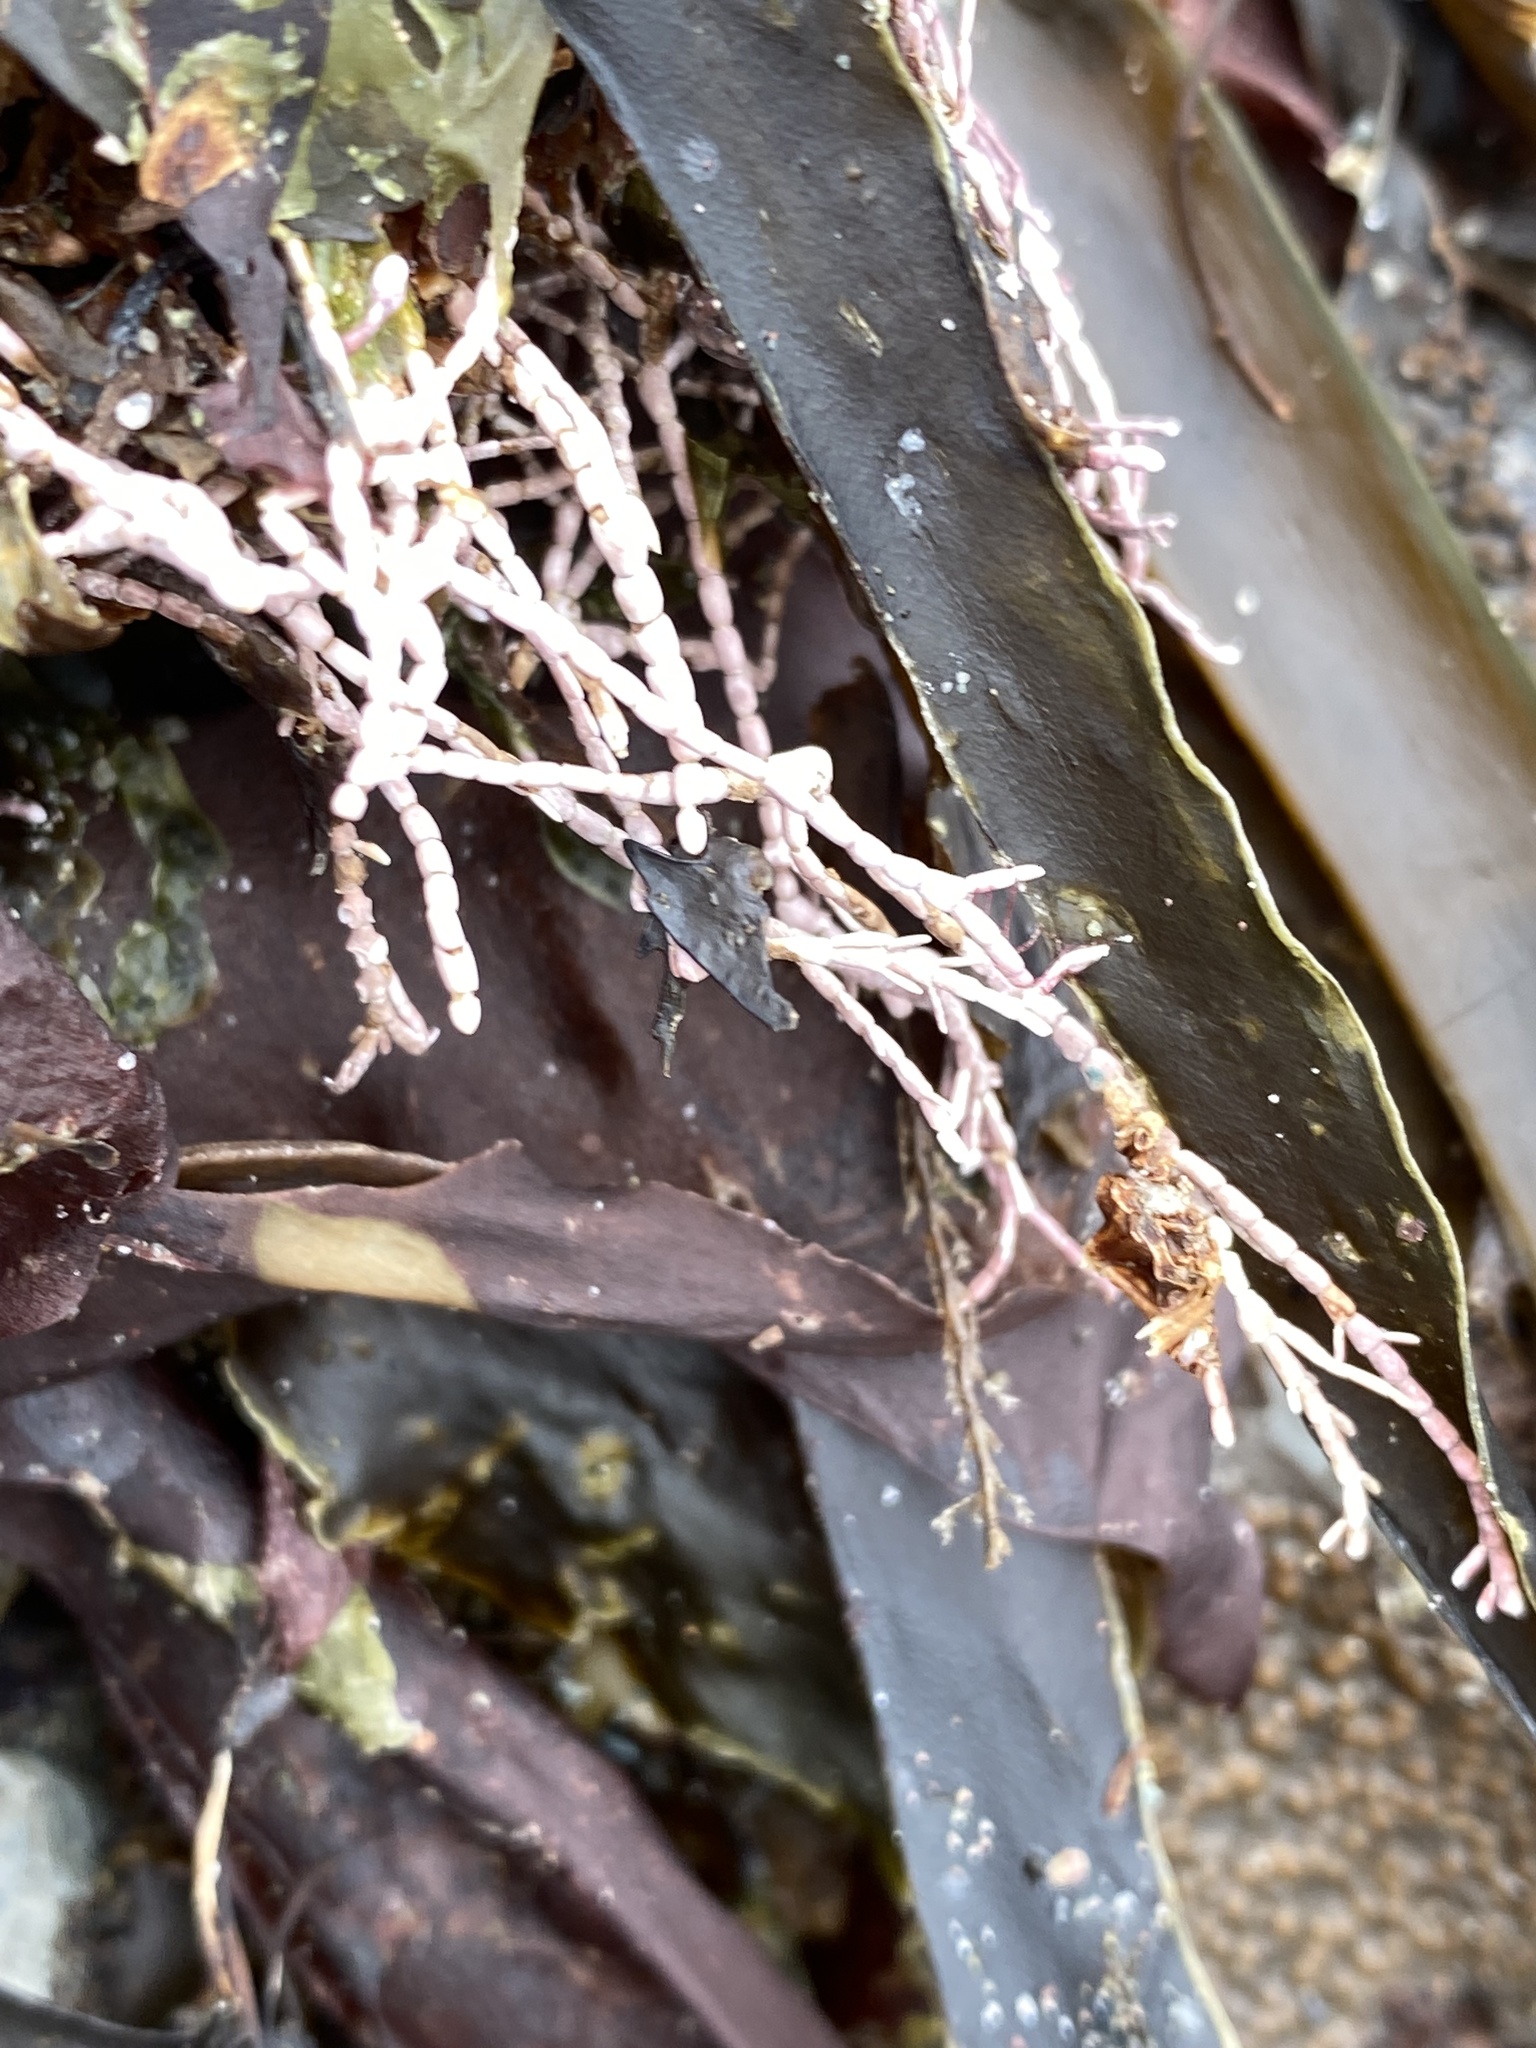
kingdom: Plantae
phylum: Rhodophyta
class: Florideophyceae
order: Corallinales
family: Corallinaceae
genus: Corallina
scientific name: Corallina officinalis
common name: Coral weed
